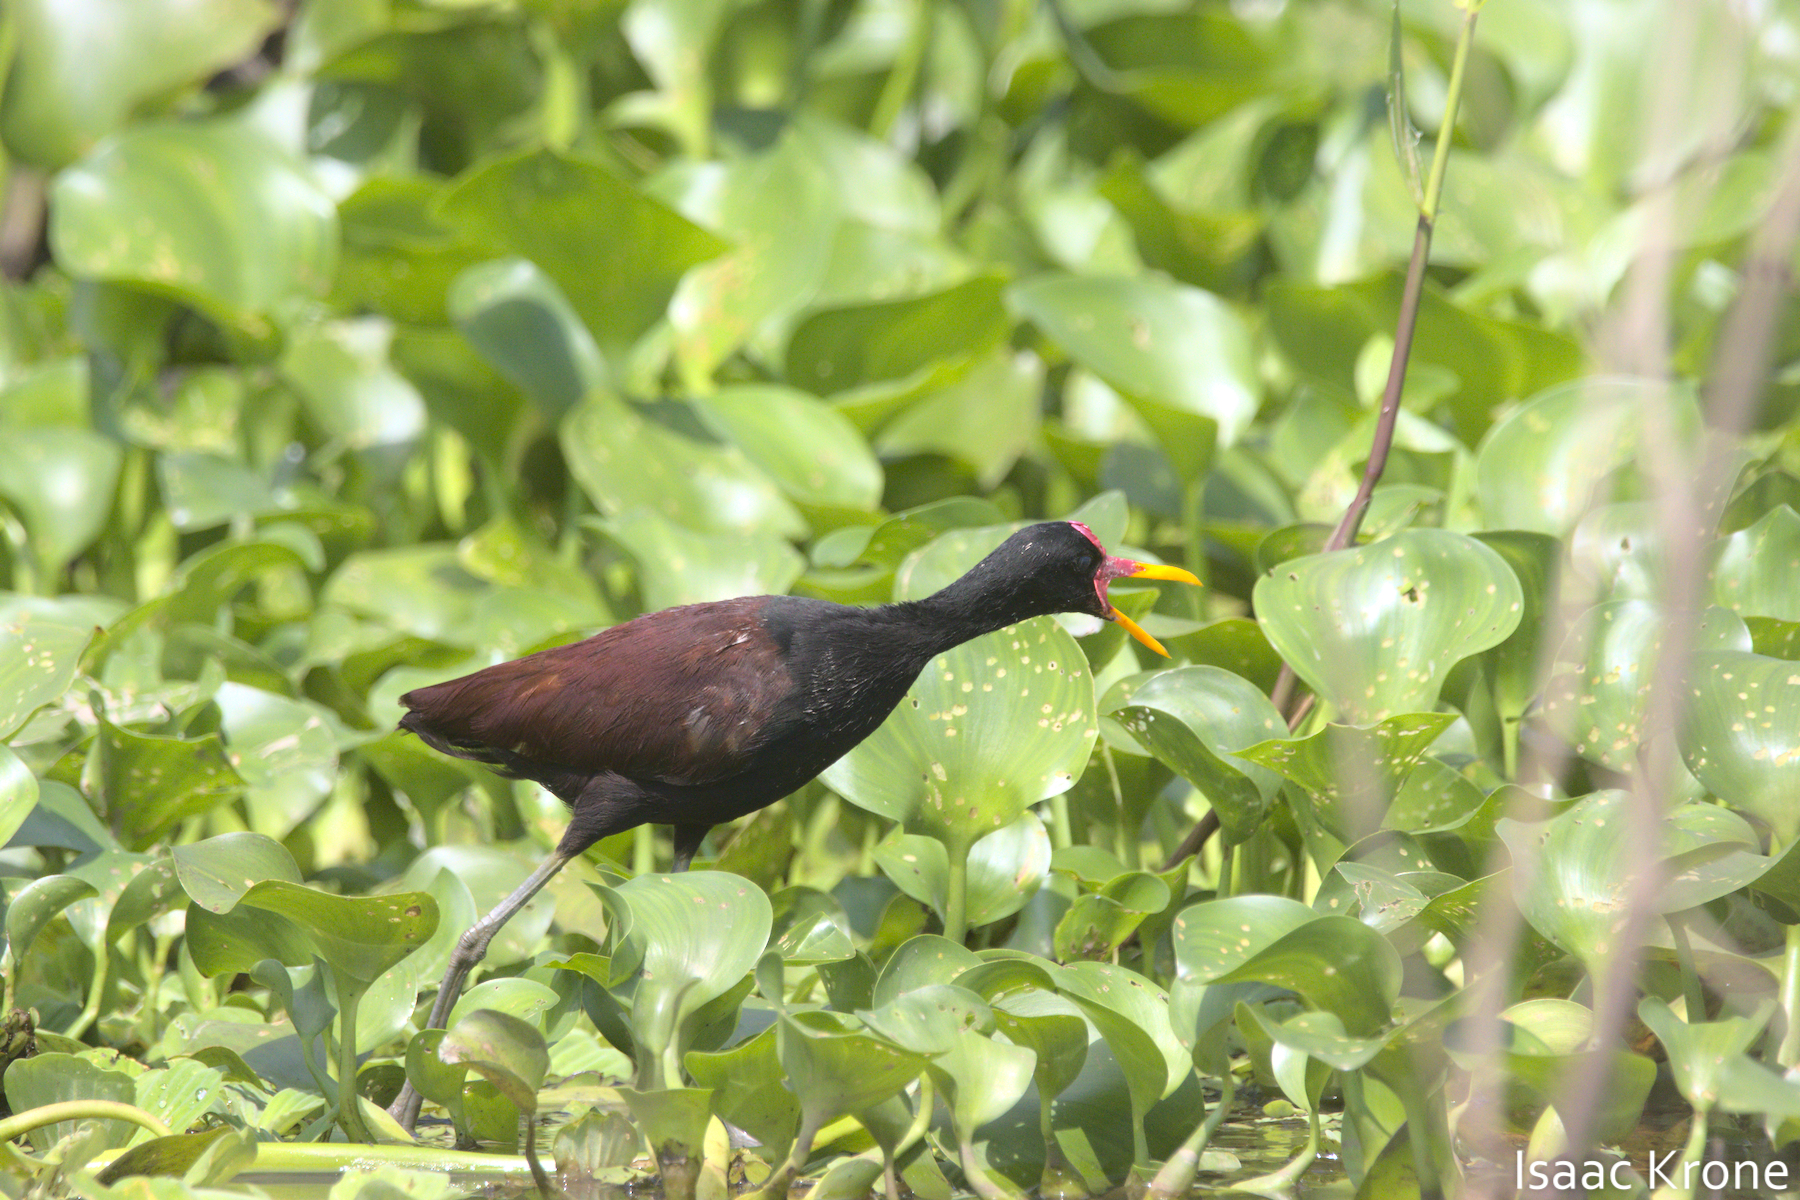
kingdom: Animalia
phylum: Chordata
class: Aves
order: Charadriiformes
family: Jacanidae
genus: Jacana
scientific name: Jacana jacana
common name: Wattled jacana
